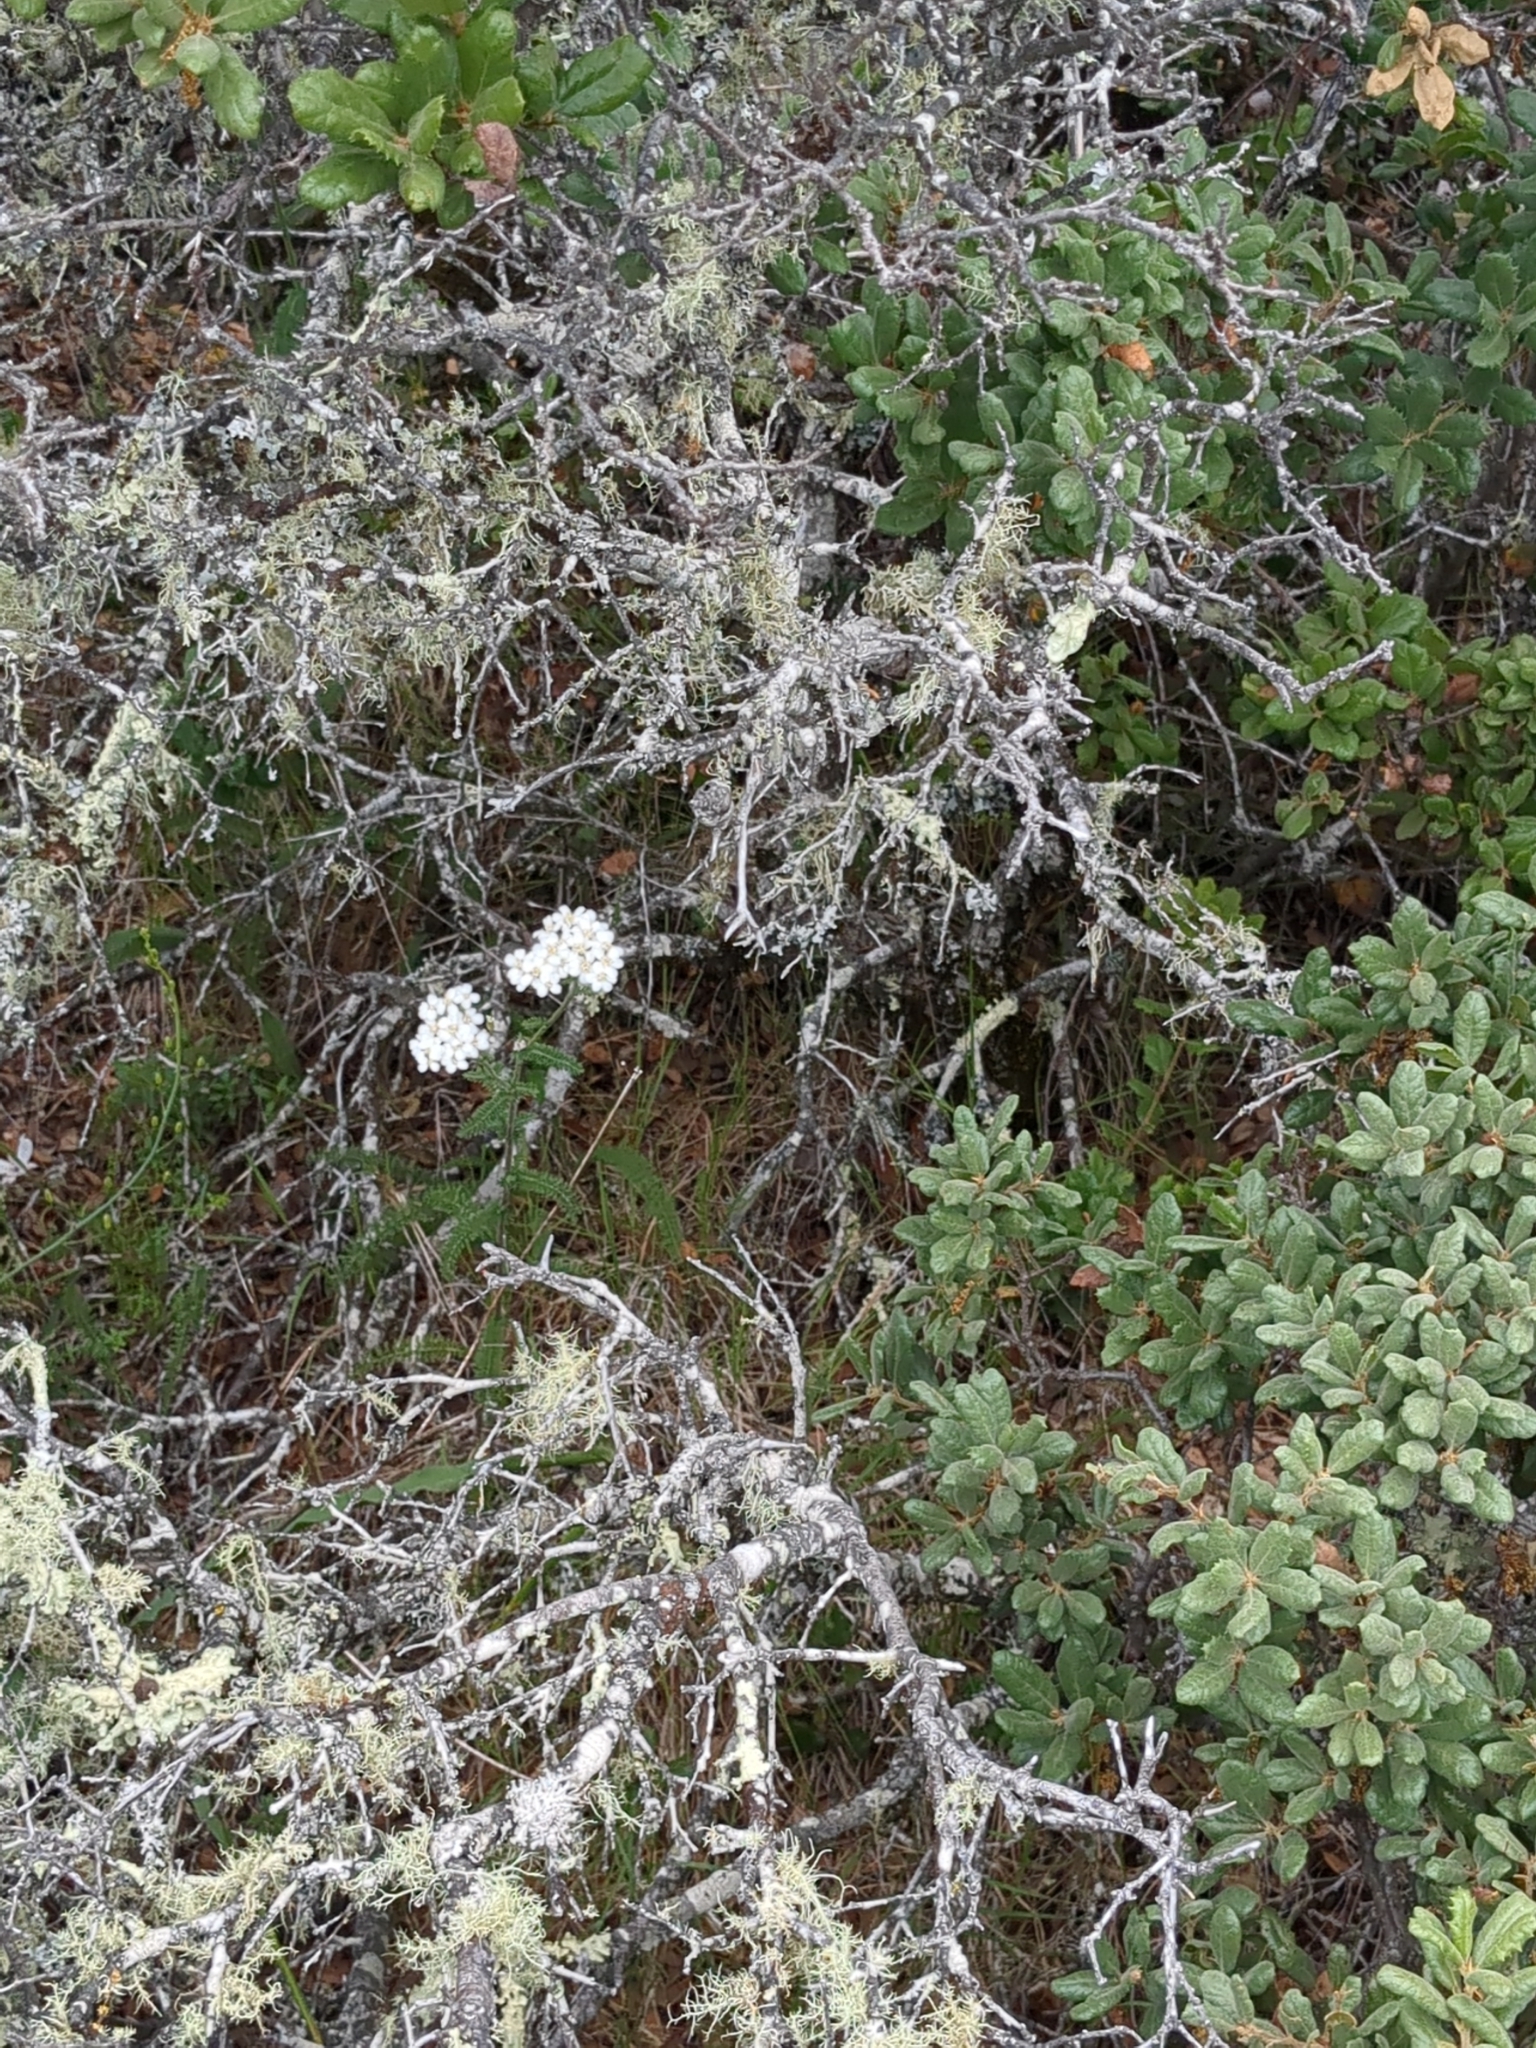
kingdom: Plantae
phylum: Tracheophyta
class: Magnoliopsida
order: Asterales
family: Asteraceae
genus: Achillea
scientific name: Achillea millefolium
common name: Yarrow
